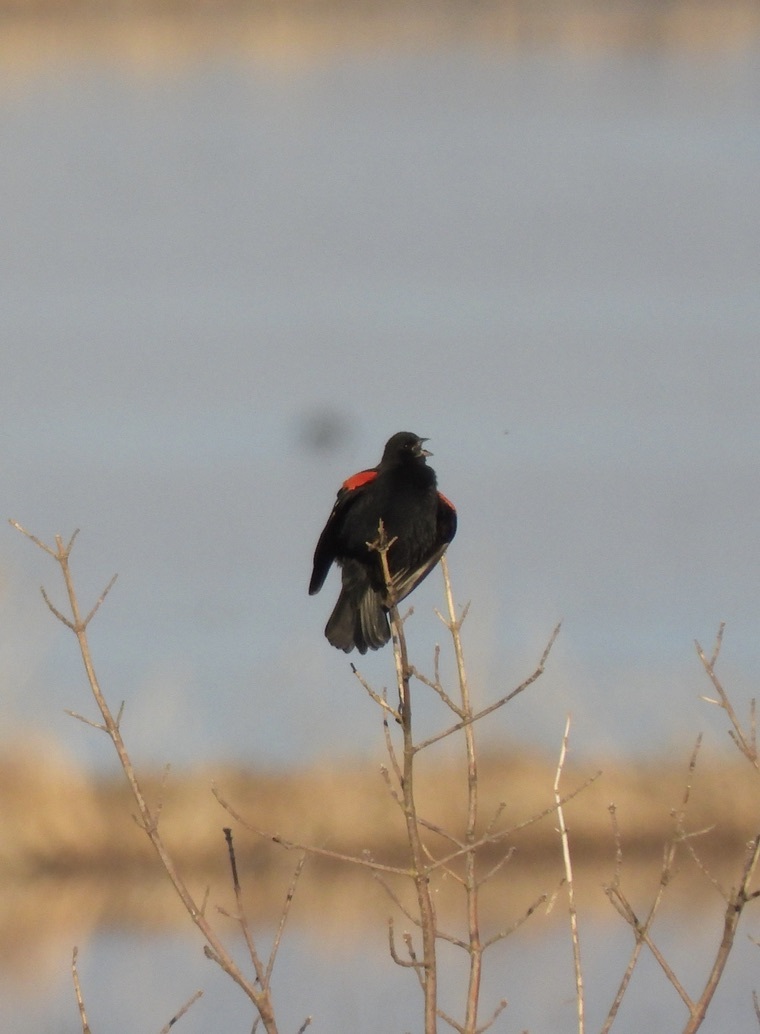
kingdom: Animalia
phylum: Chordata
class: Aves
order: Passeriformes
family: Icteridae
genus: Agelaius
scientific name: Agelaius phoeniceus
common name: Red-winged blackbird
